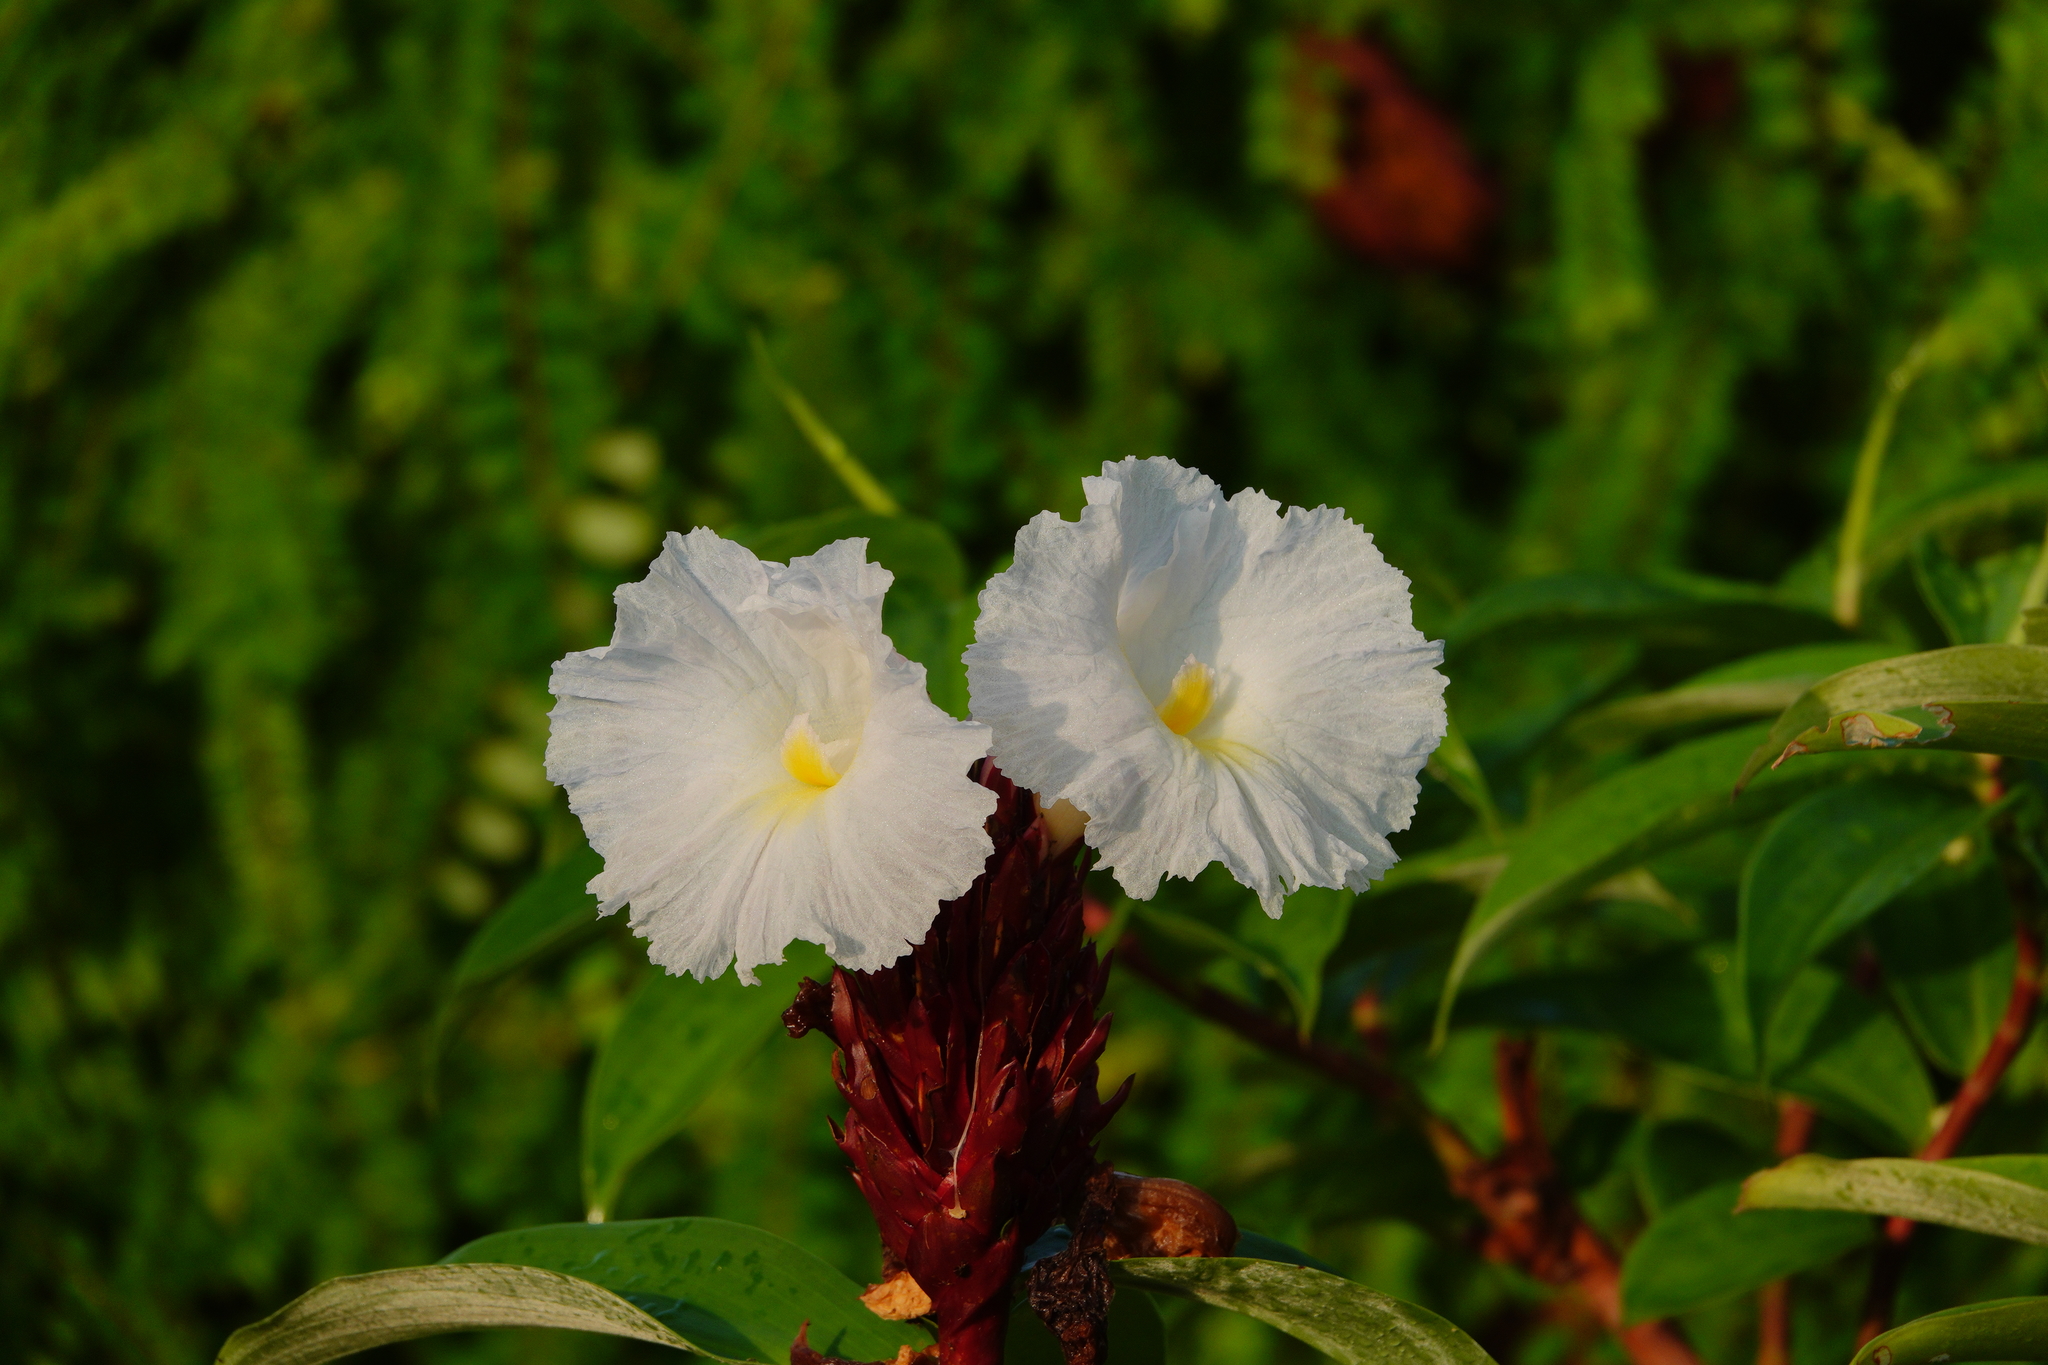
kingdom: Plantae
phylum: Tracheophyta
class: Liliopsida
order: Zingiberales
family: Costaceae
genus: Hellenia
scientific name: Hellenia speciosa
